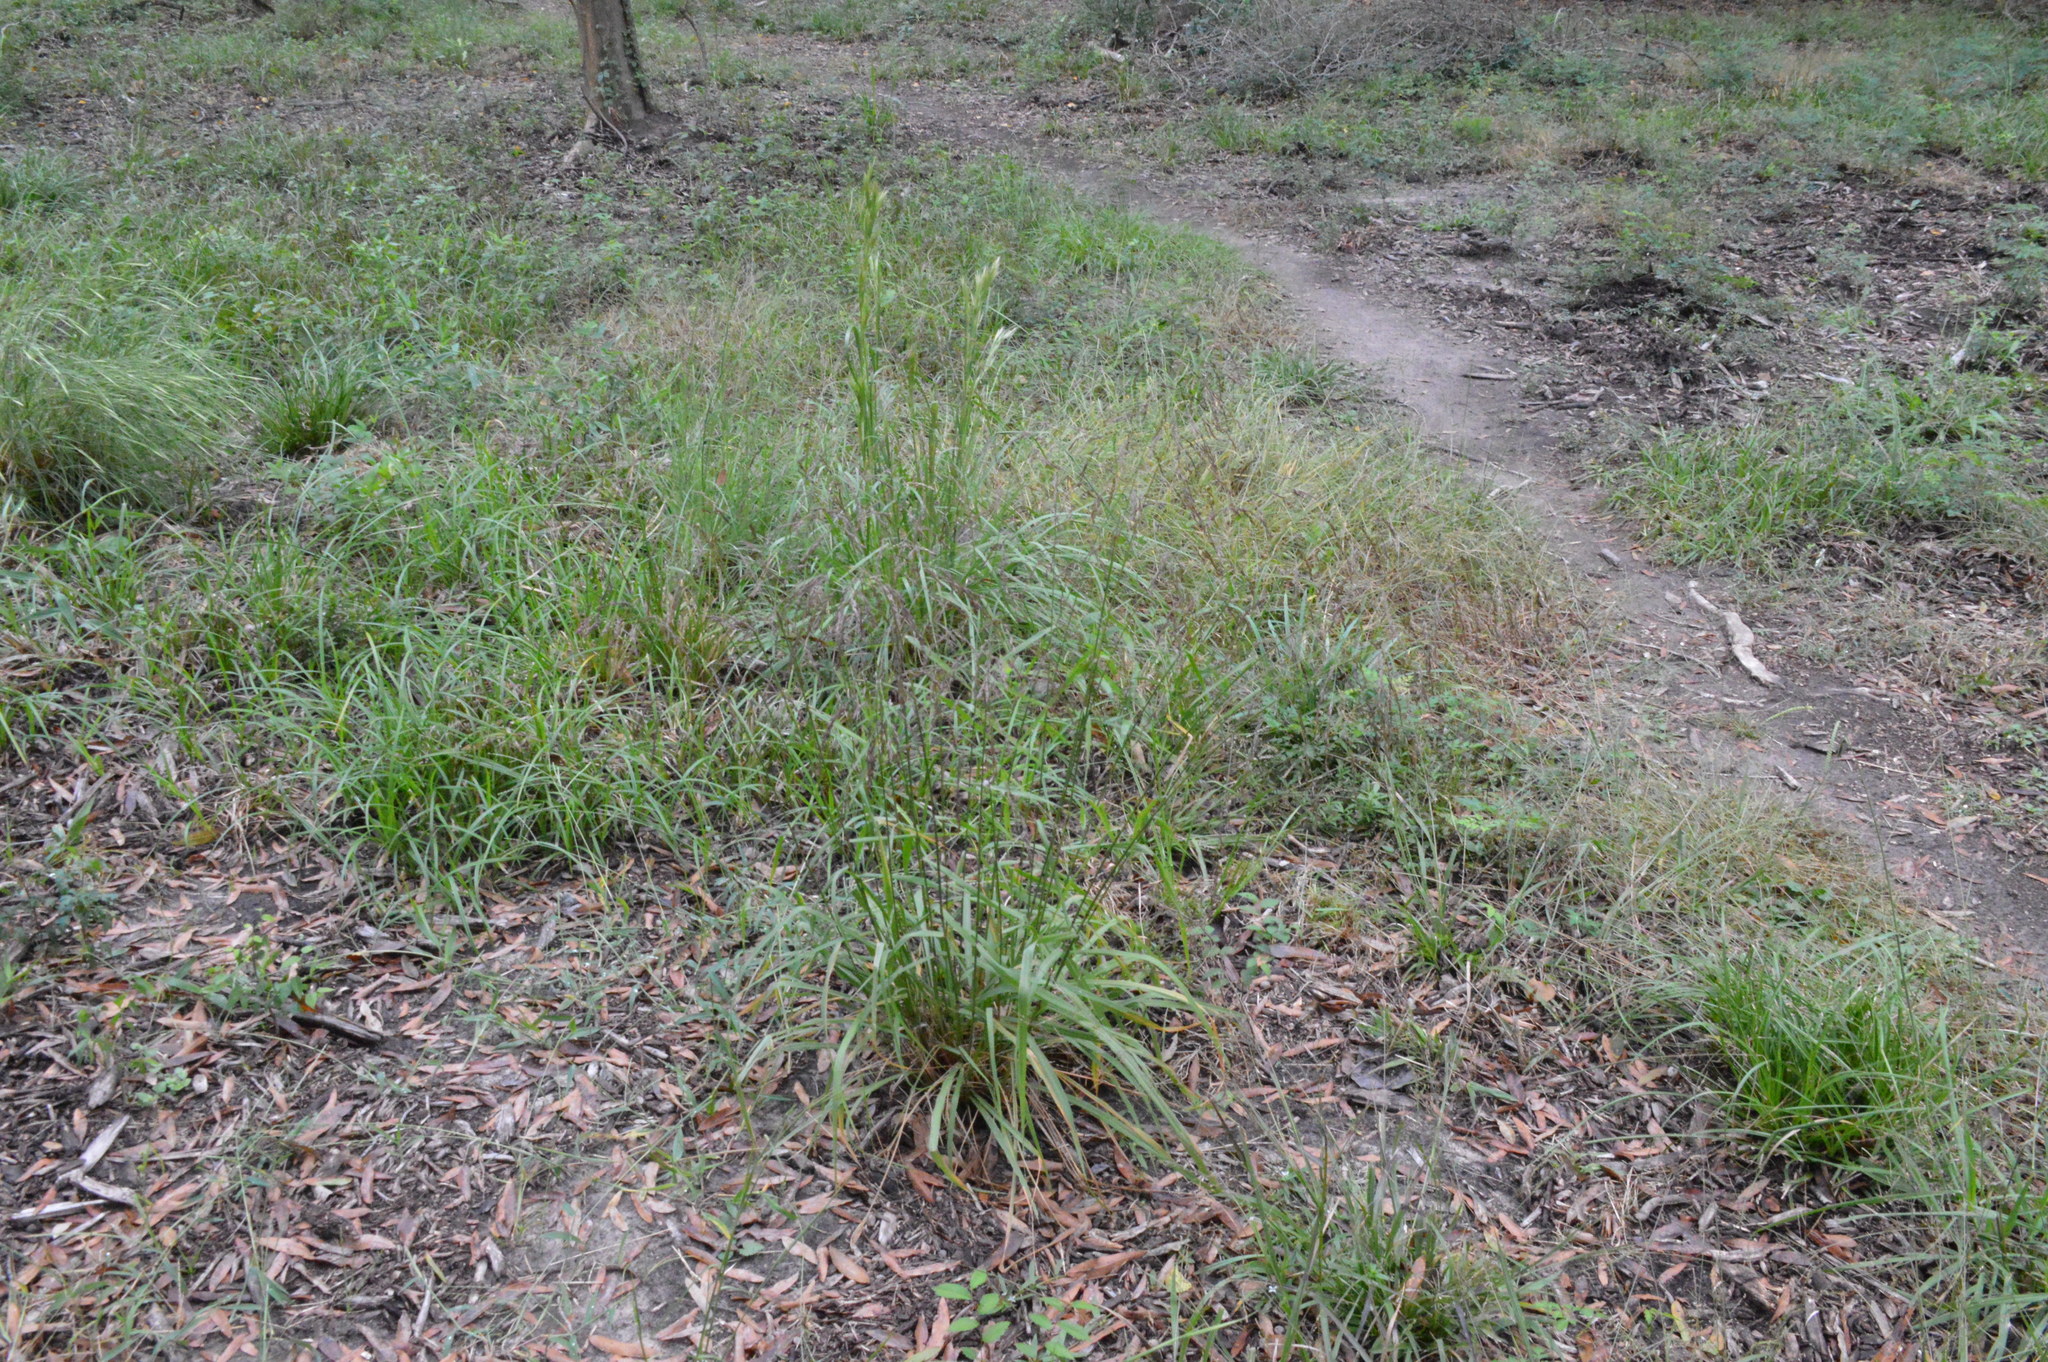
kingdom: Plantae
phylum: Tracheophyta
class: Liliopsida
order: Poales
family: Poaceae
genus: Tridens
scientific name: Tridens flavus
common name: Purpletop
